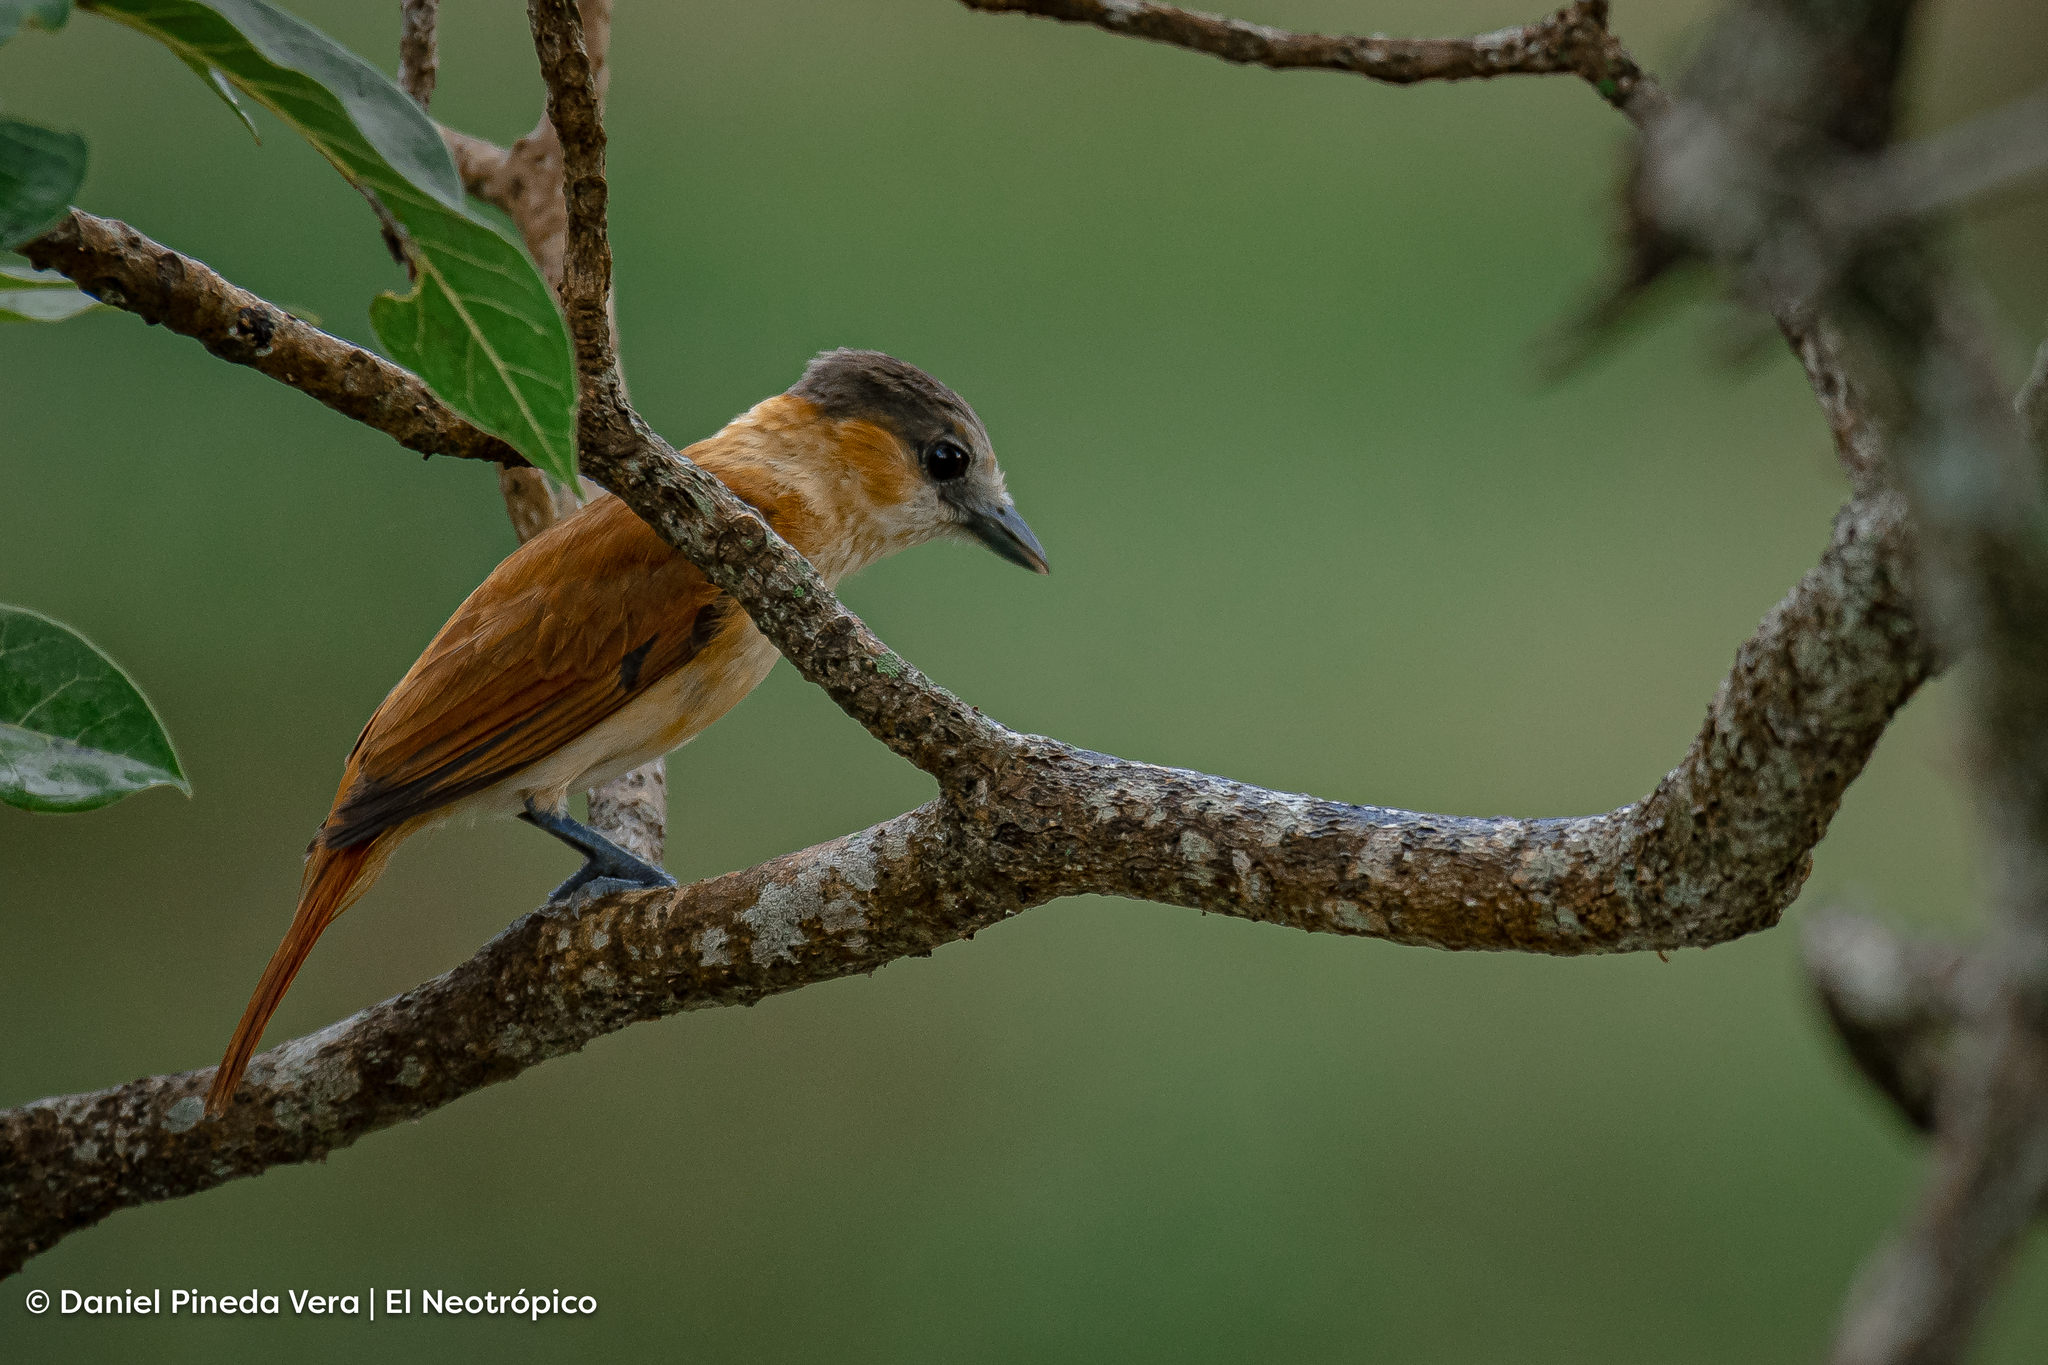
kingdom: Animalia
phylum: Chordata
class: Aves
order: Passeriformes
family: Cotingidae
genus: Pachyramphus
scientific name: Pachyramphus aglaiae
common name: Rose-throated becard
